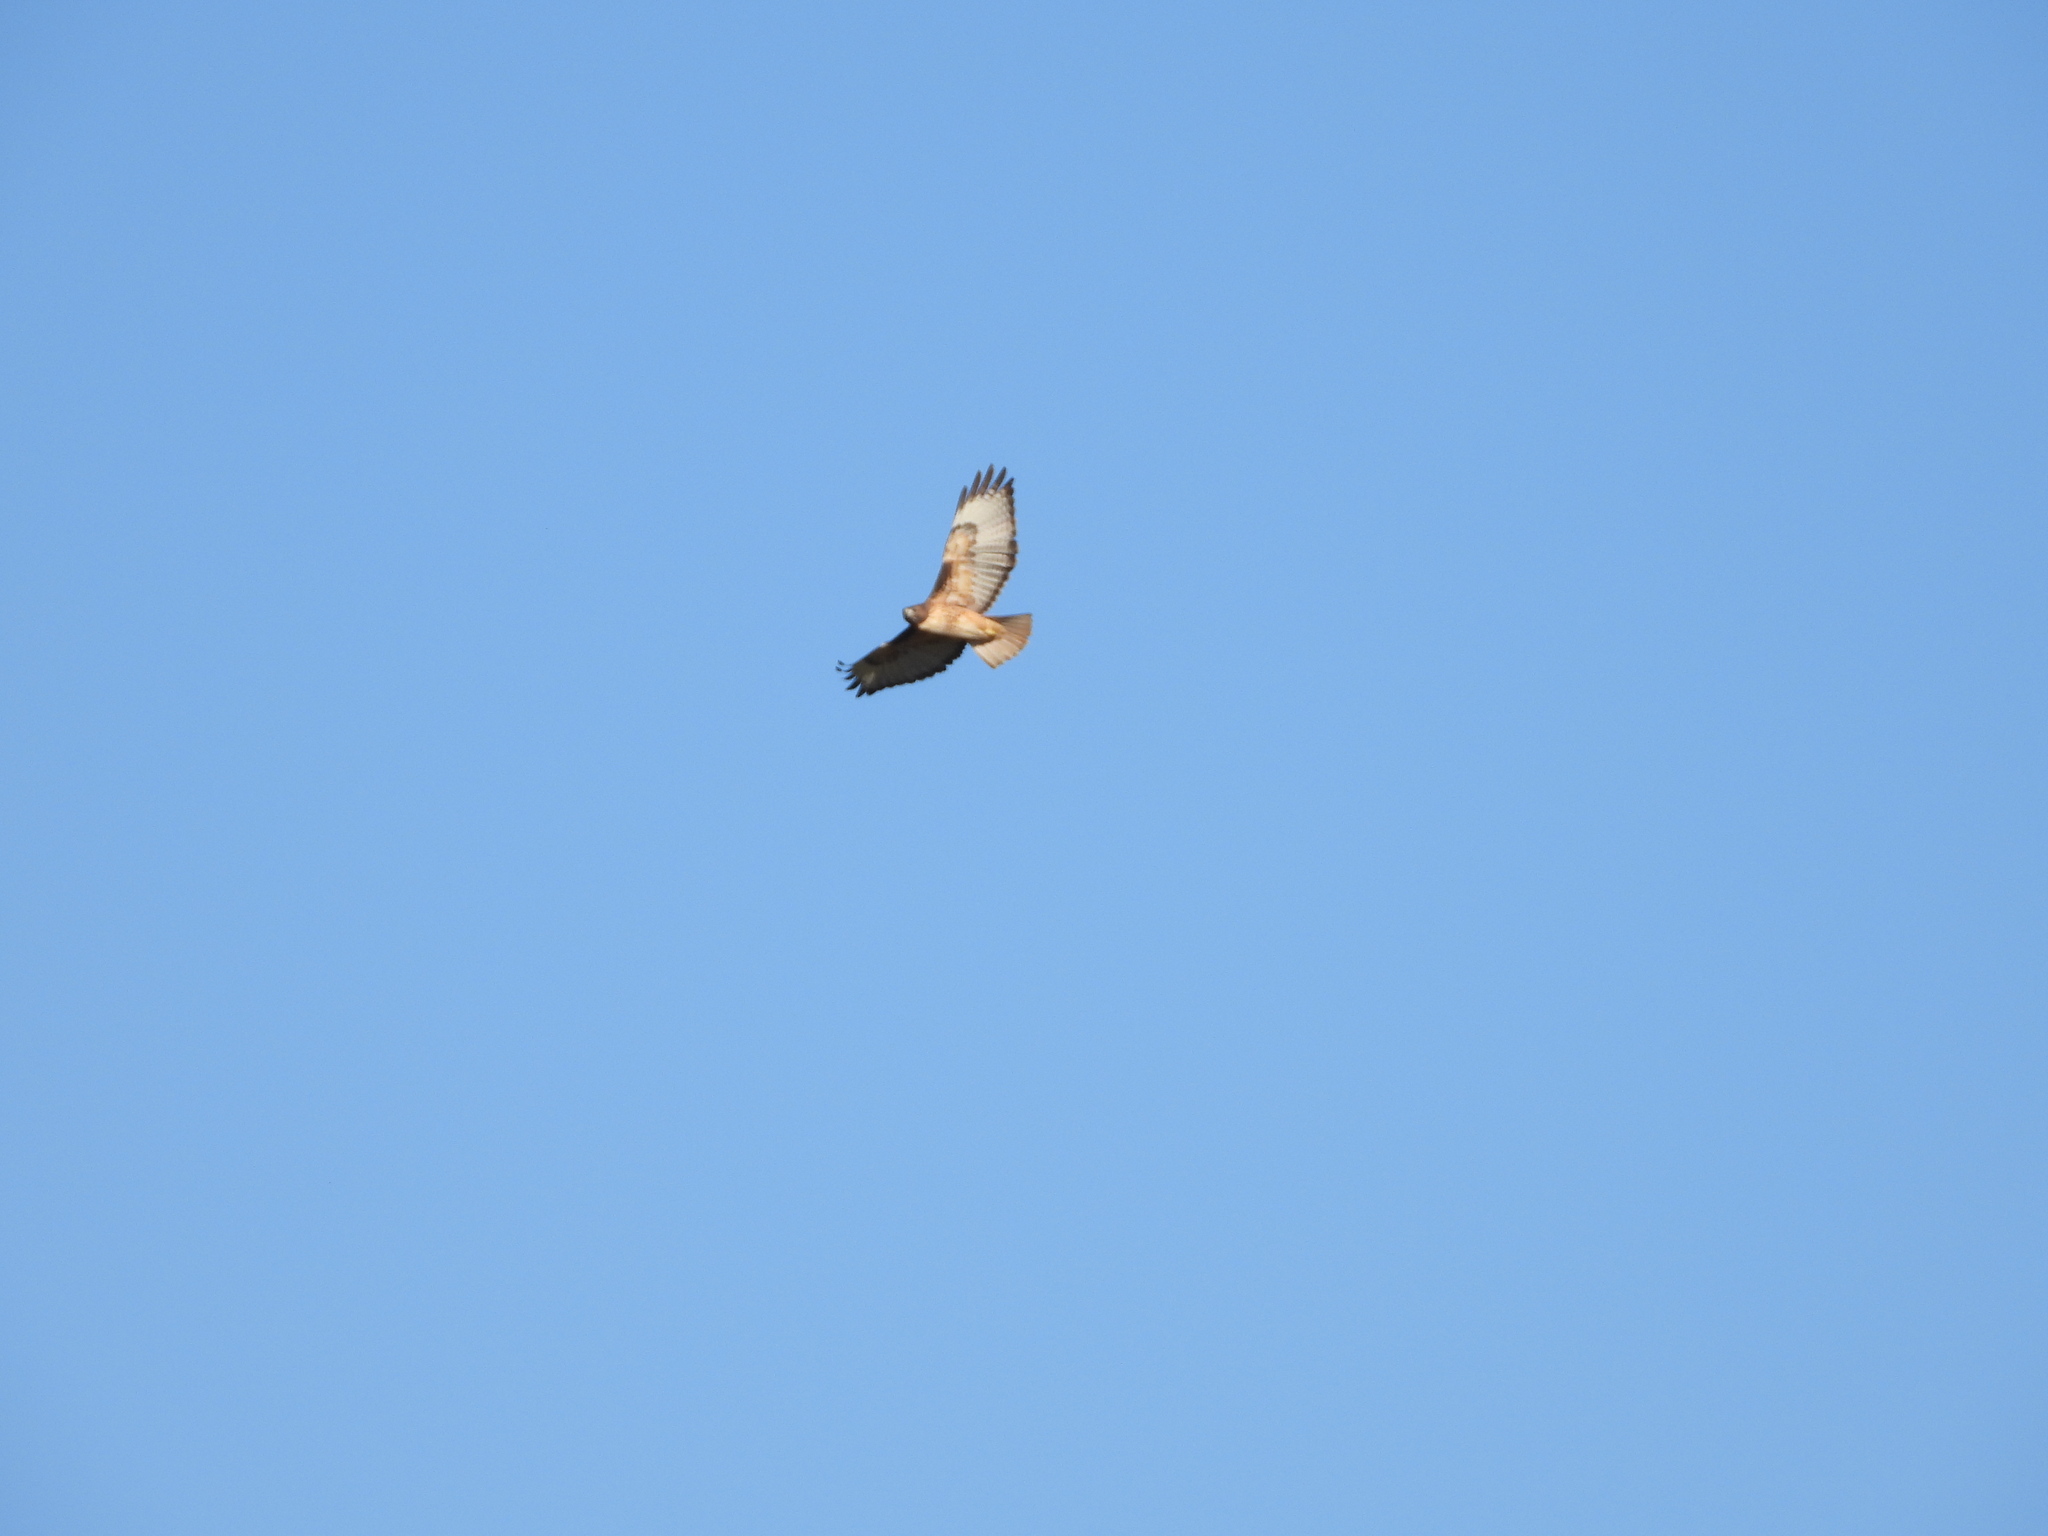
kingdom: Animalia
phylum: Chordata
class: Aves
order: Accipitriformes
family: Accipitridae
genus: Buteo
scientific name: Buteo jamaicensis
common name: Red-tailed hawk
